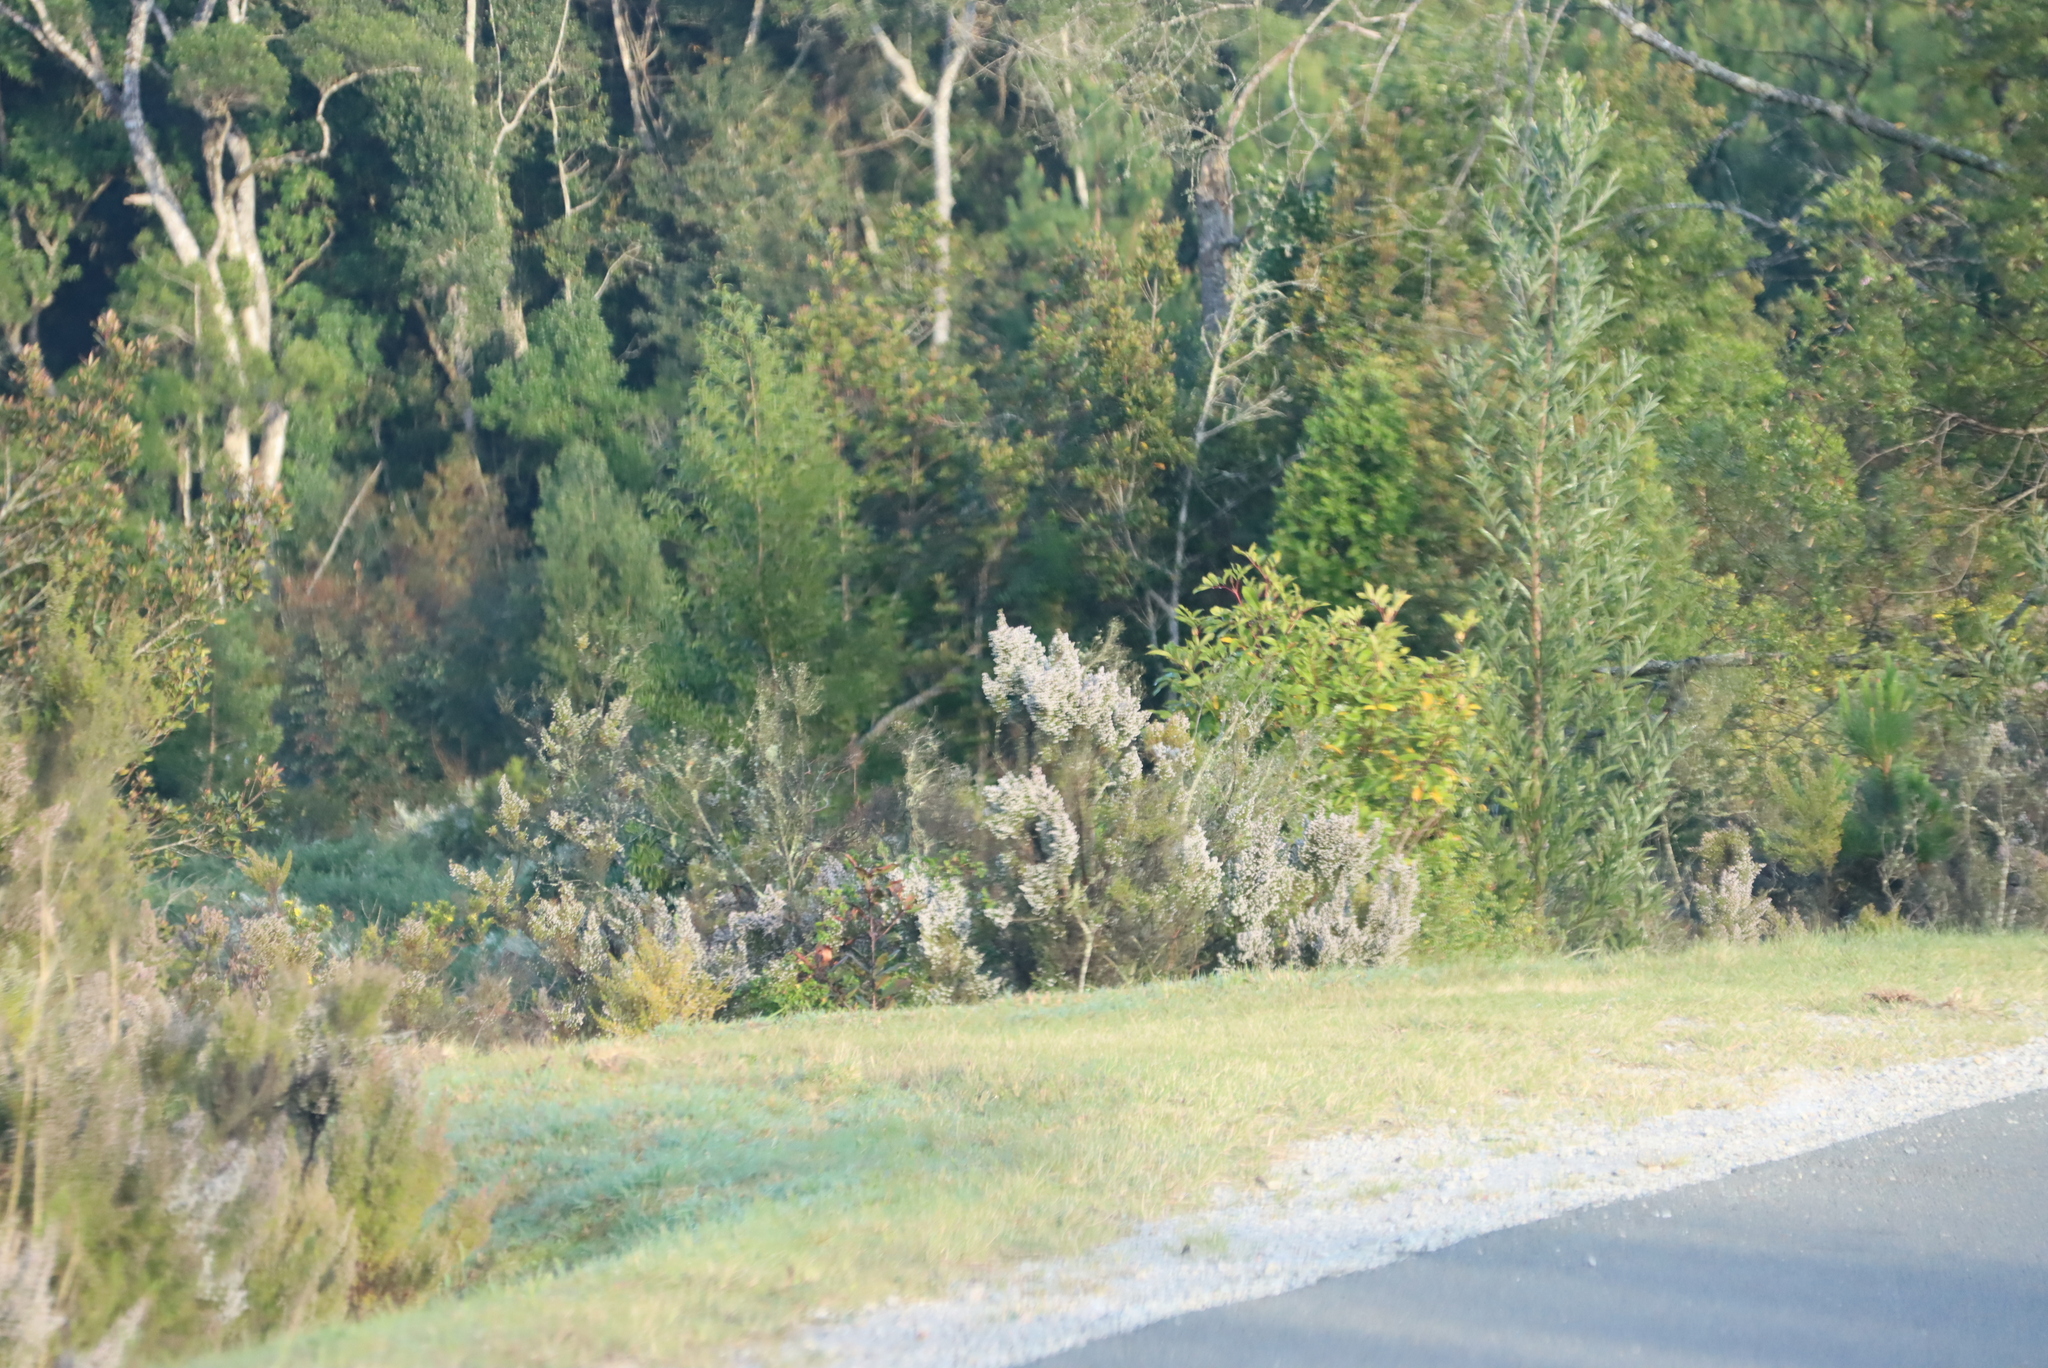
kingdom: Plantae
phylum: Tracheophyta
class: Magnoliopsida
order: Fabales
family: Fabaceae
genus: Acacia
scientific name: Acacia melanoxylon
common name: Blackwood
